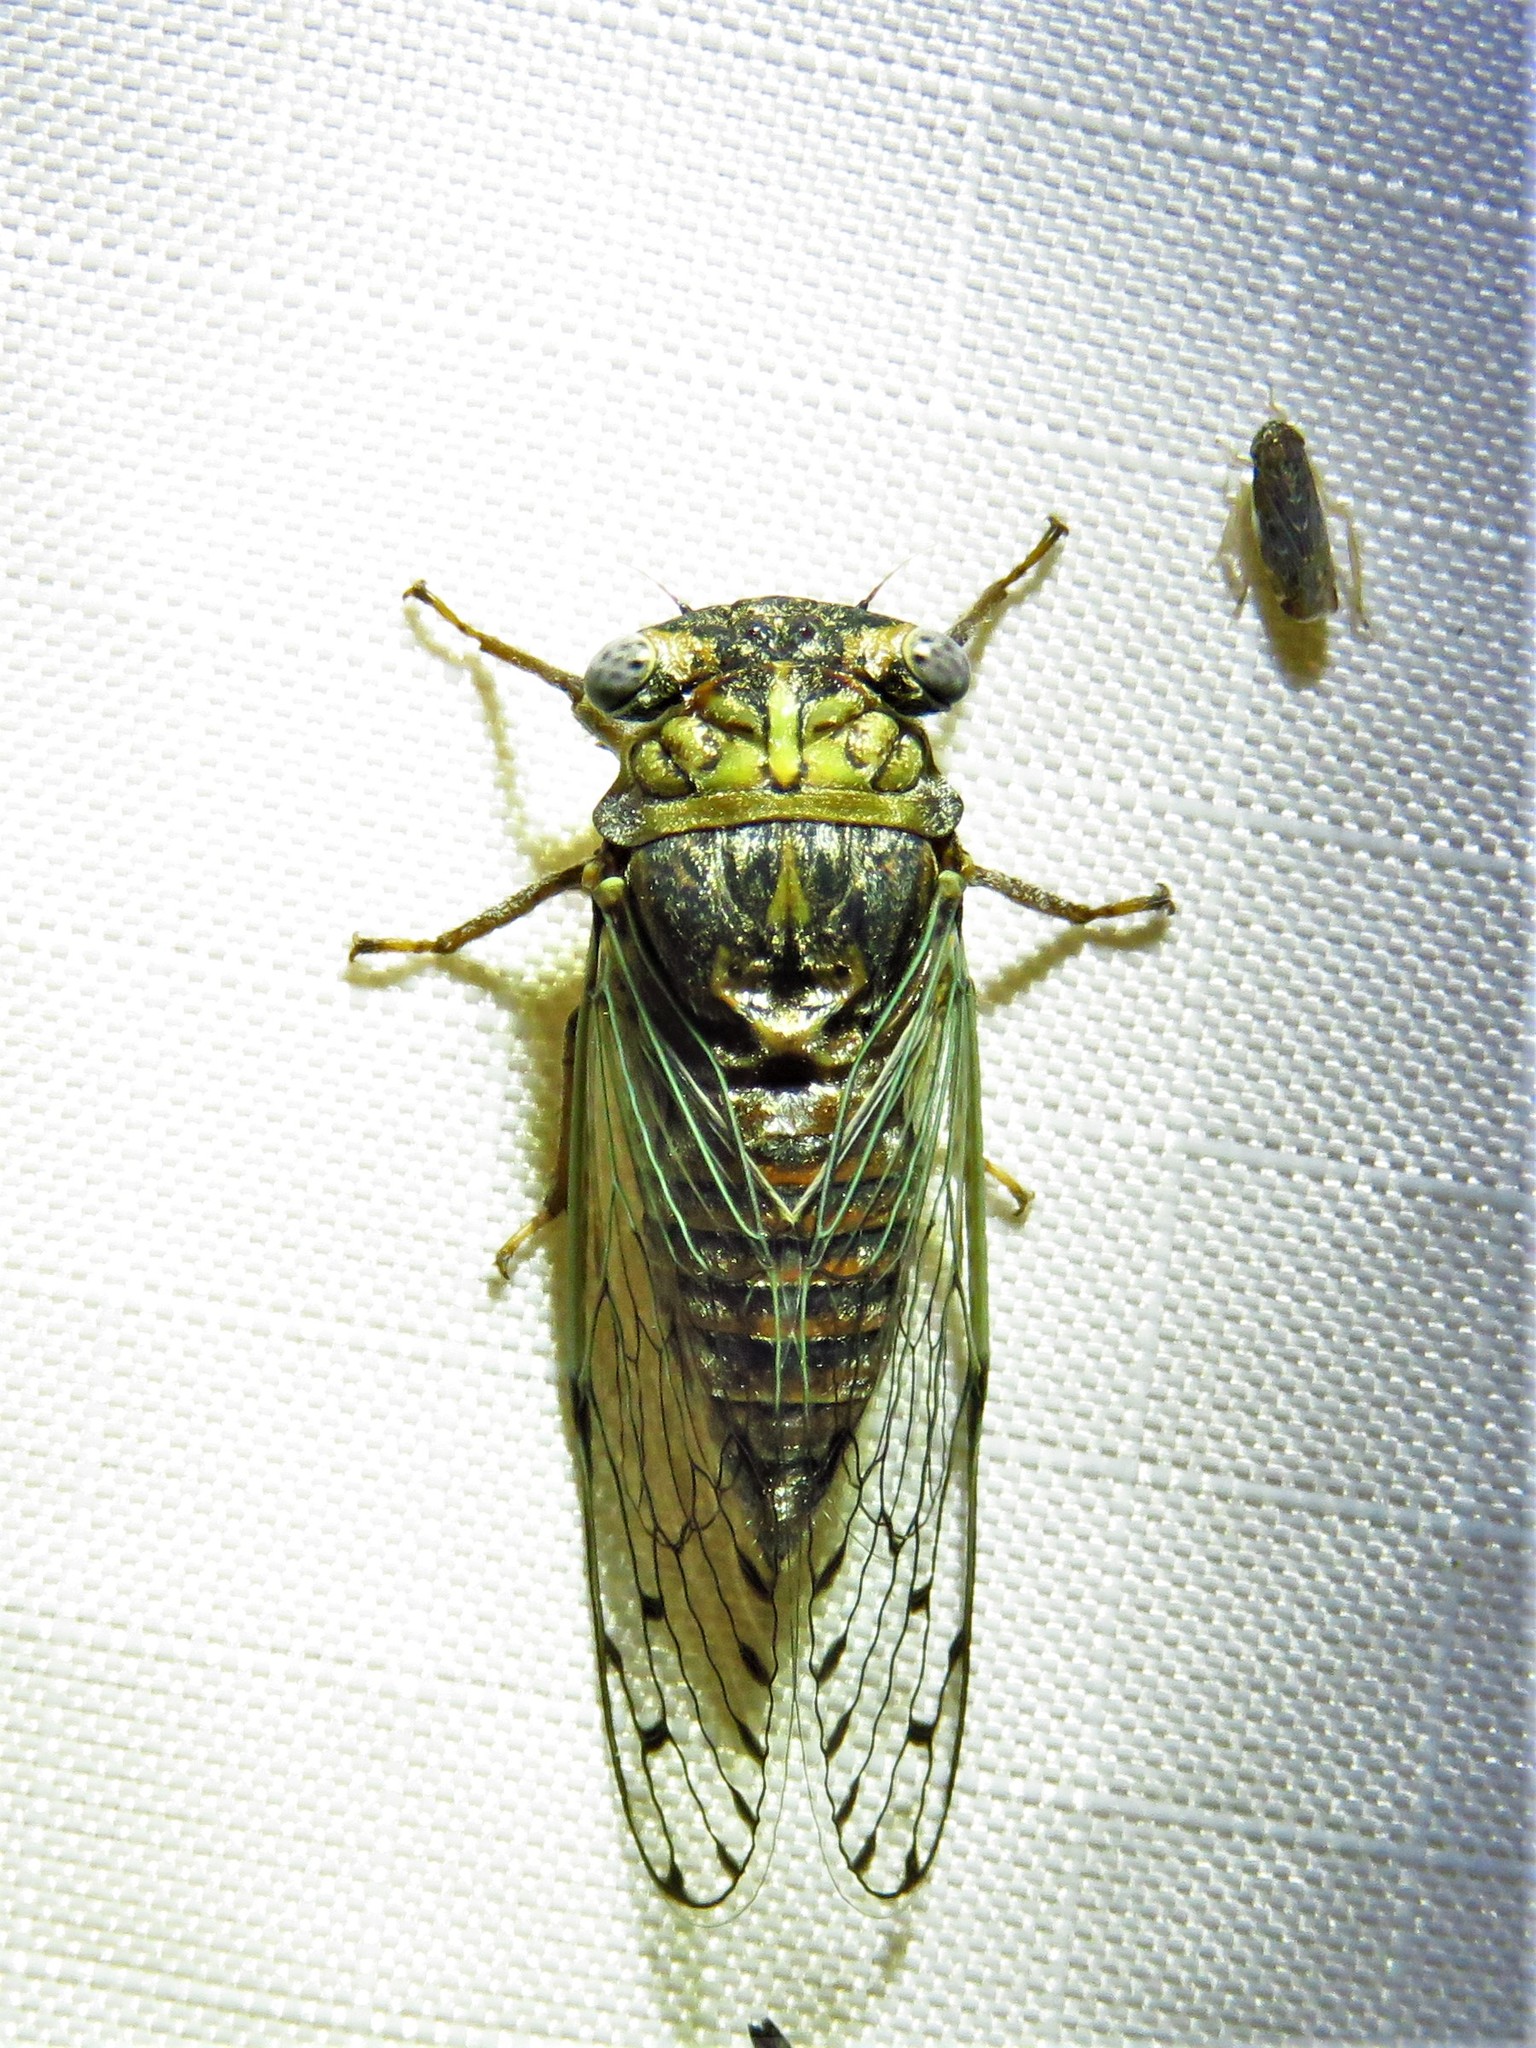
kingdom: Animalia
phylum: Arthropoda
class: Insecta
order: Hemiptera
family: Cicadidae
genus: Pacarina
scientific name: Pacarina puella
